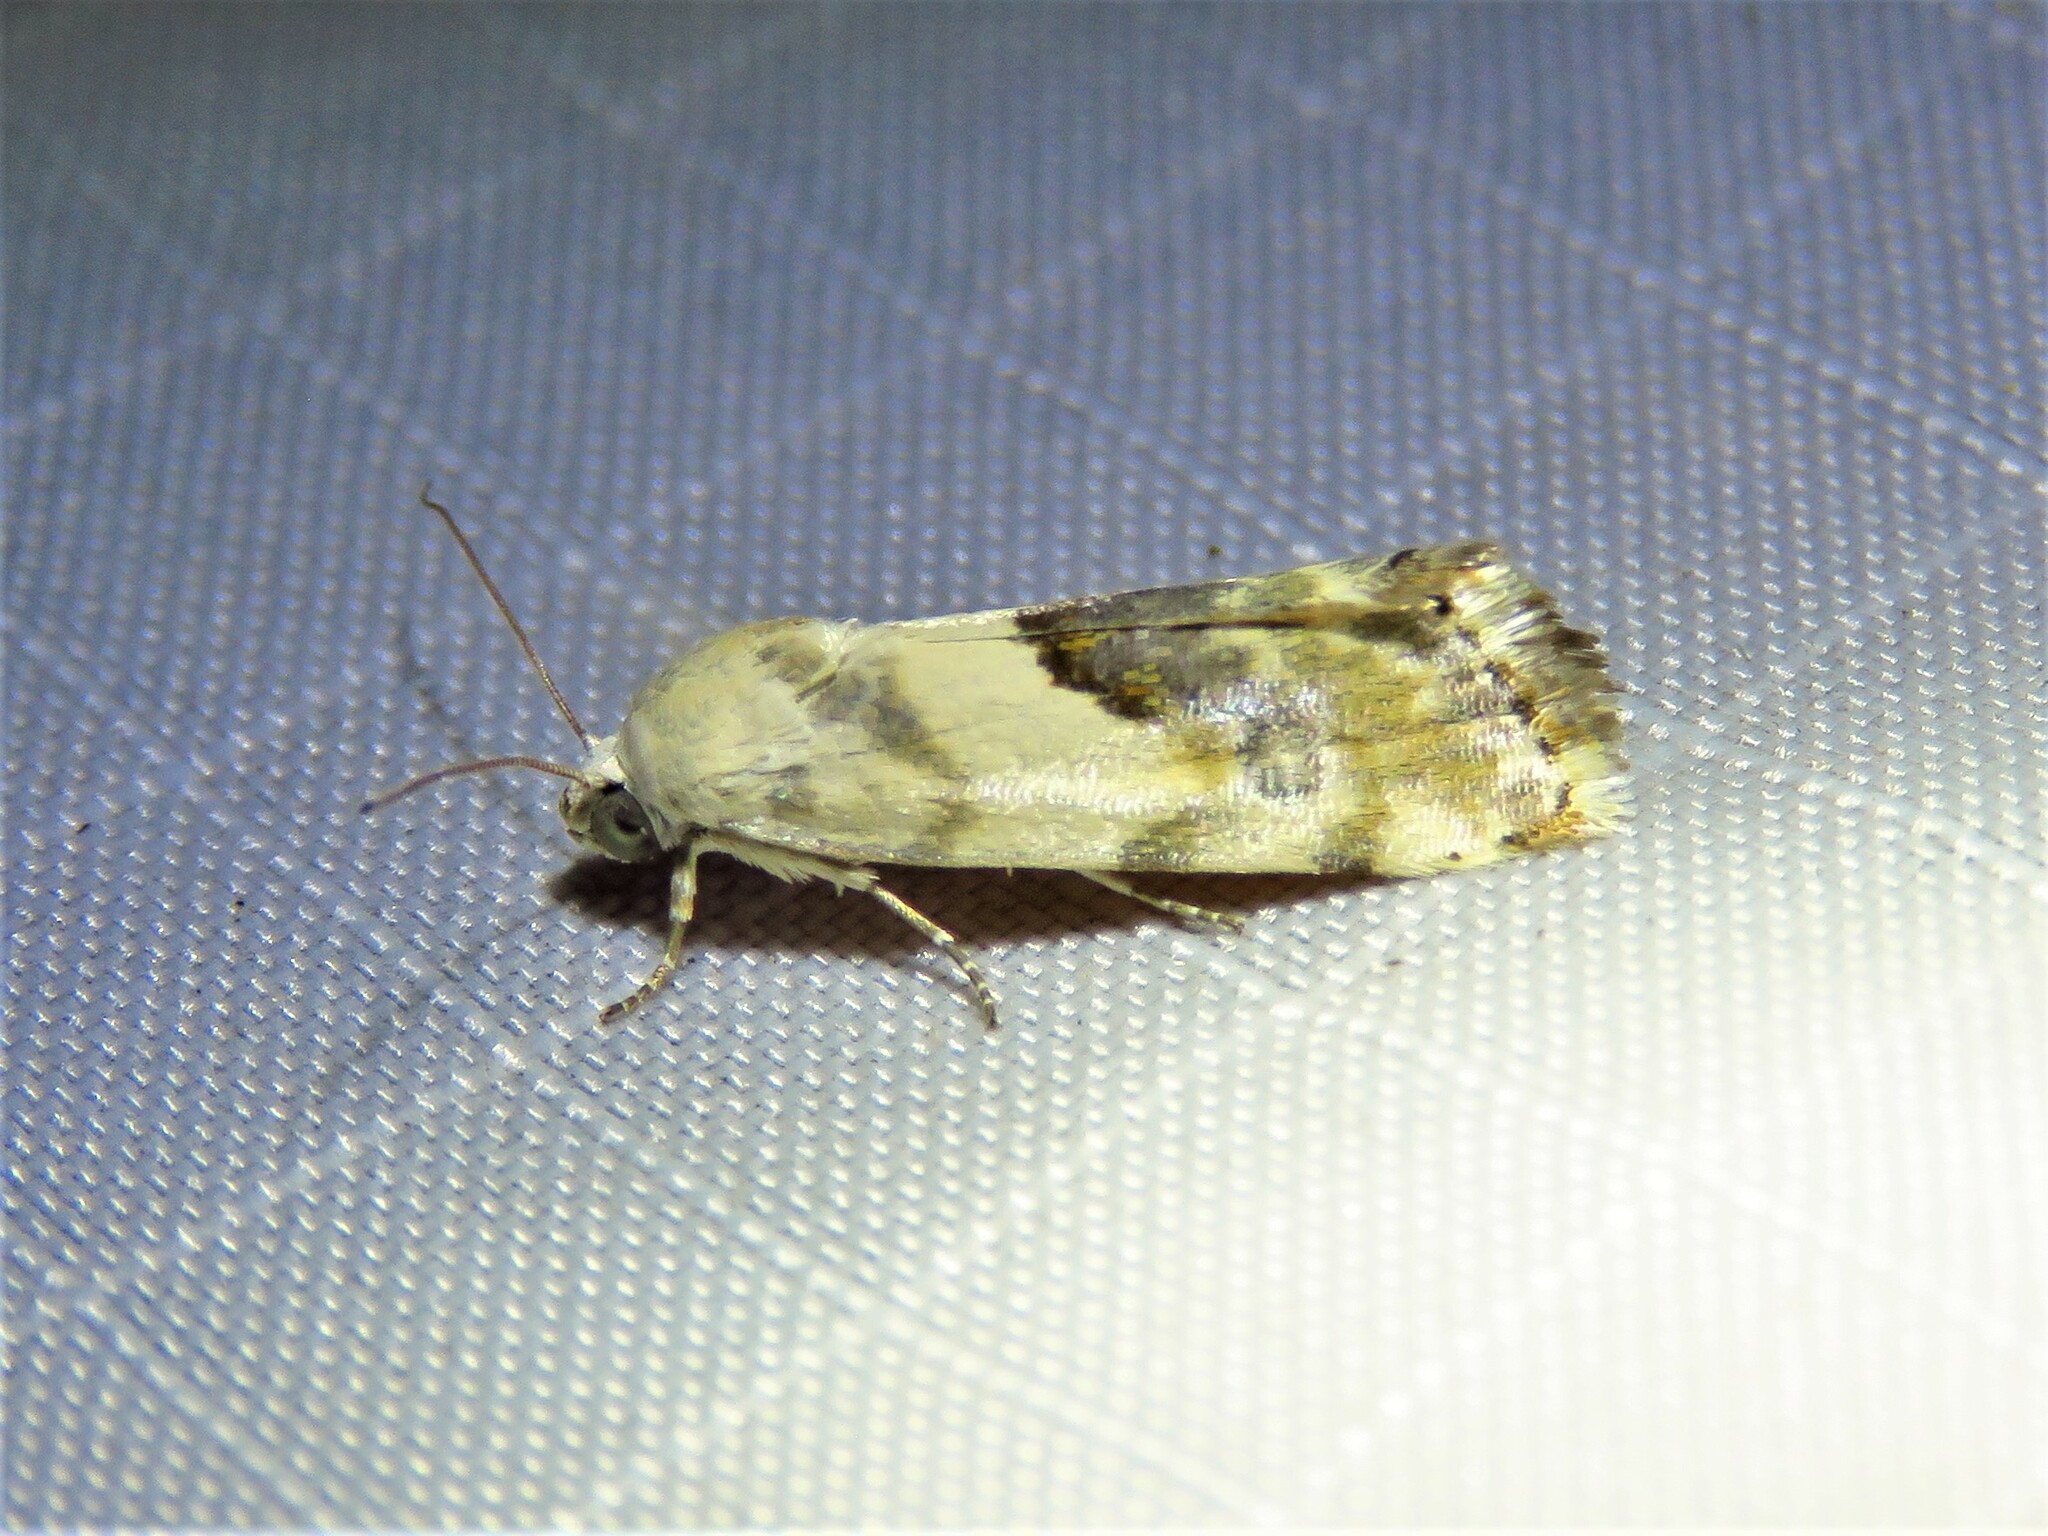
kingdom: Animalia
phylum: Arthropoda
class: Insecta
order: Lepidoptera
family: Noctuidae
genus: Acontia
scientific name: Acontia candefacta
